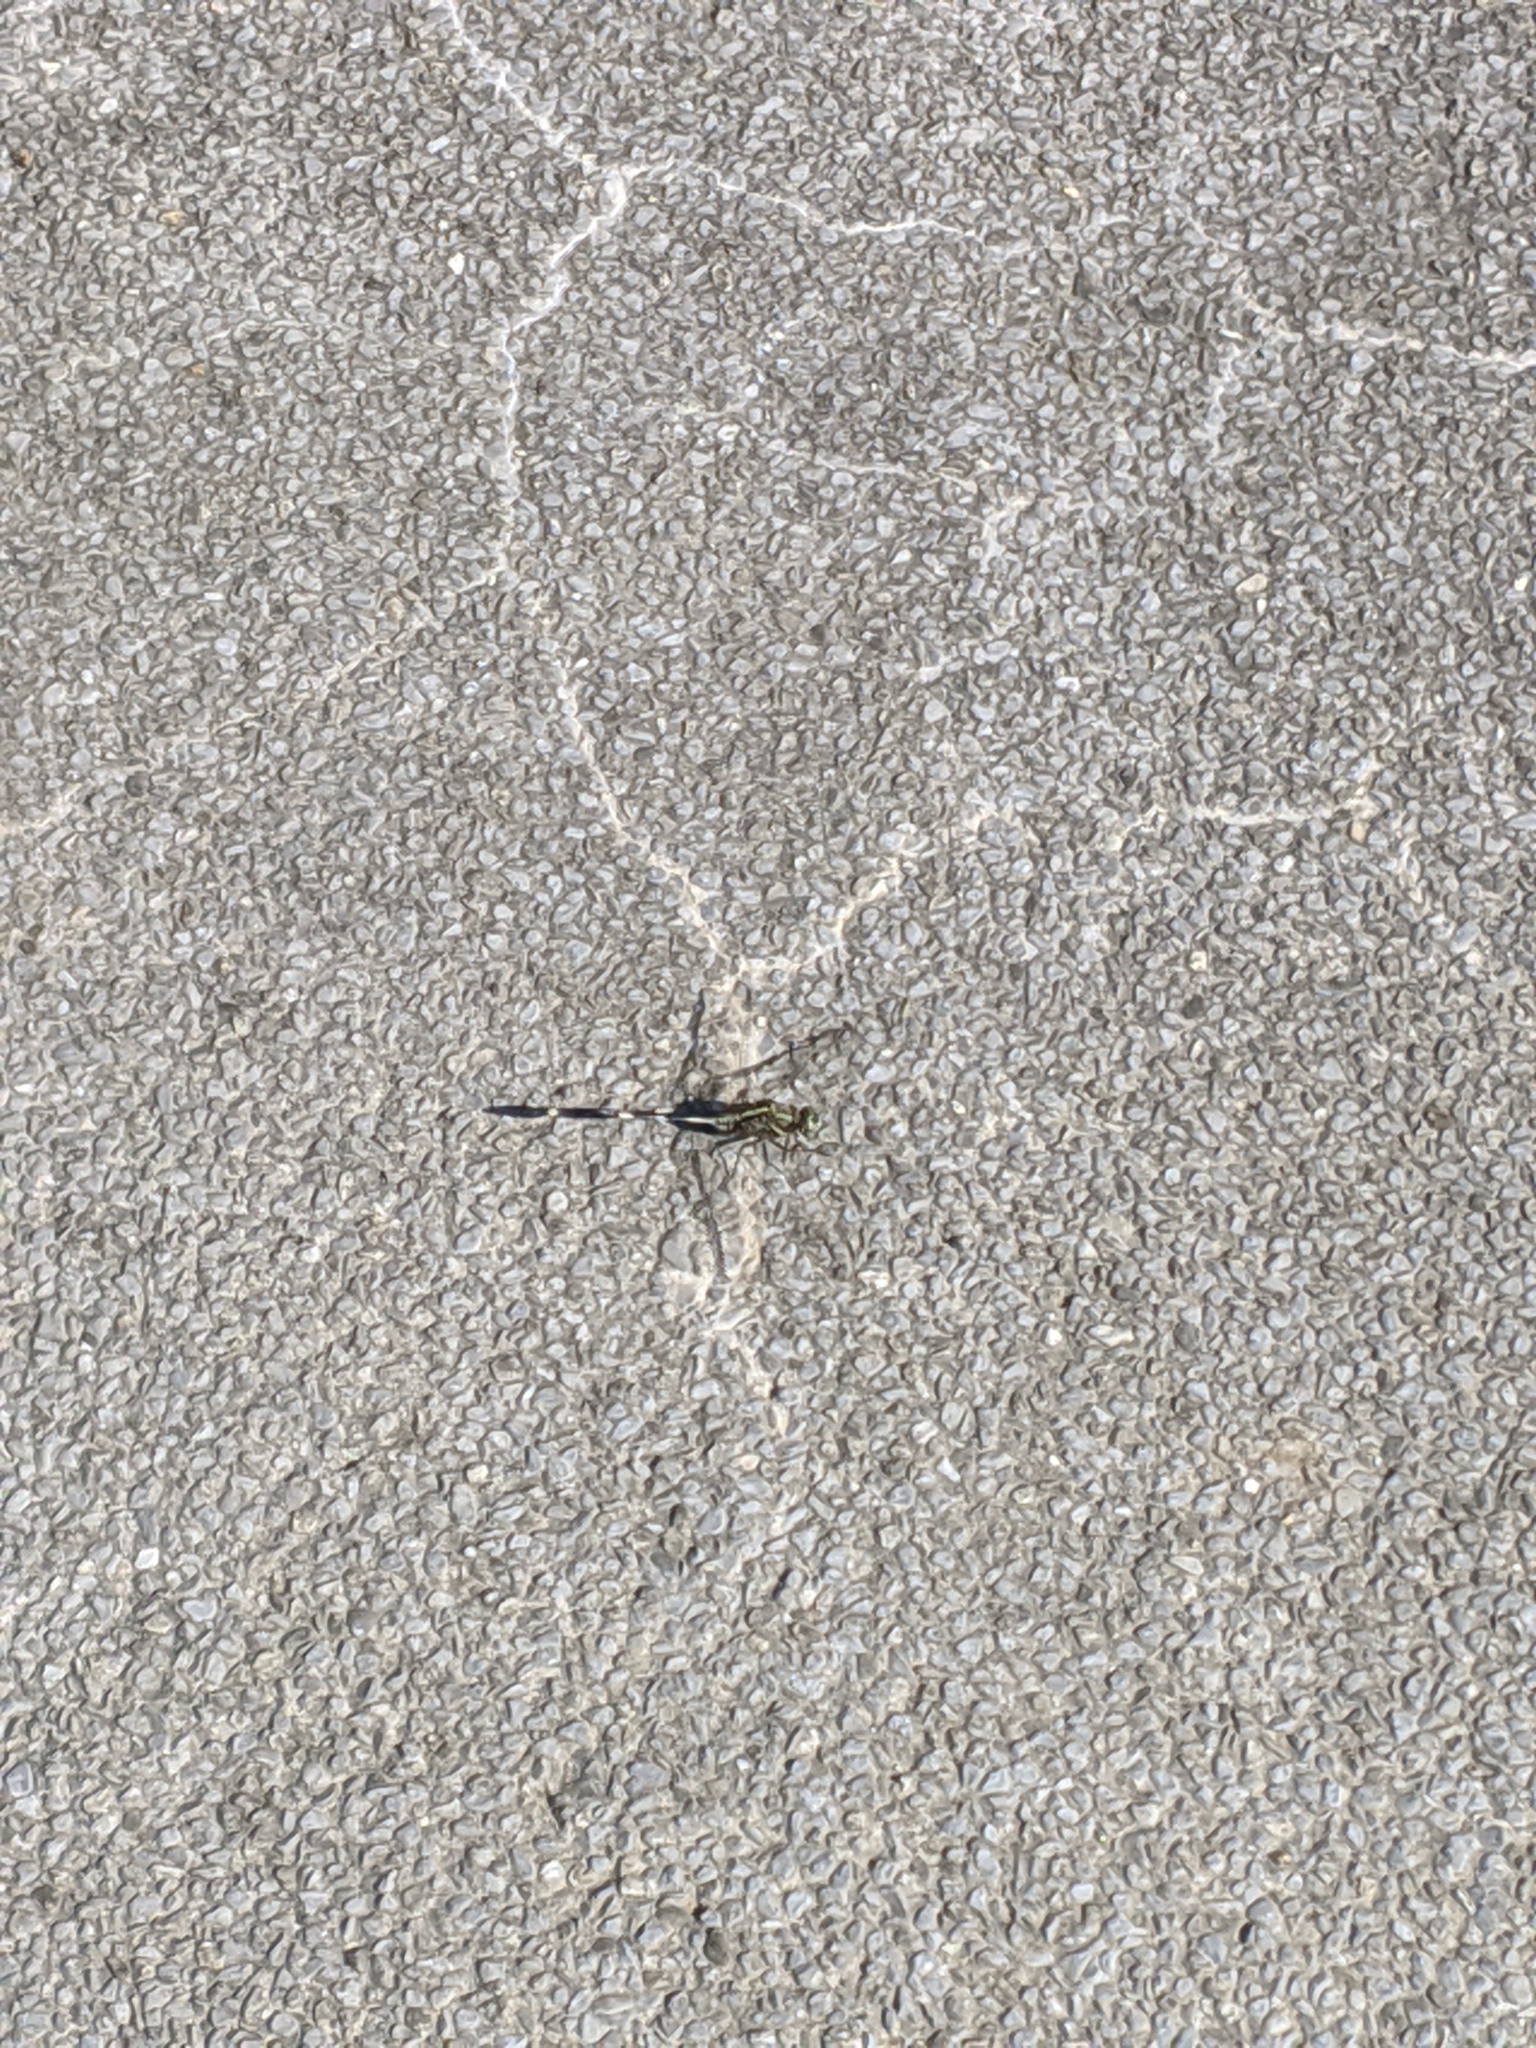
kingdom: Animalia
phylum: Arthropoda
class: Insecta
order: Odonata
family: Libellulidae
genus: Orthetrum
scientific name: Orthetrum sabina
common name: Slender skimmer
